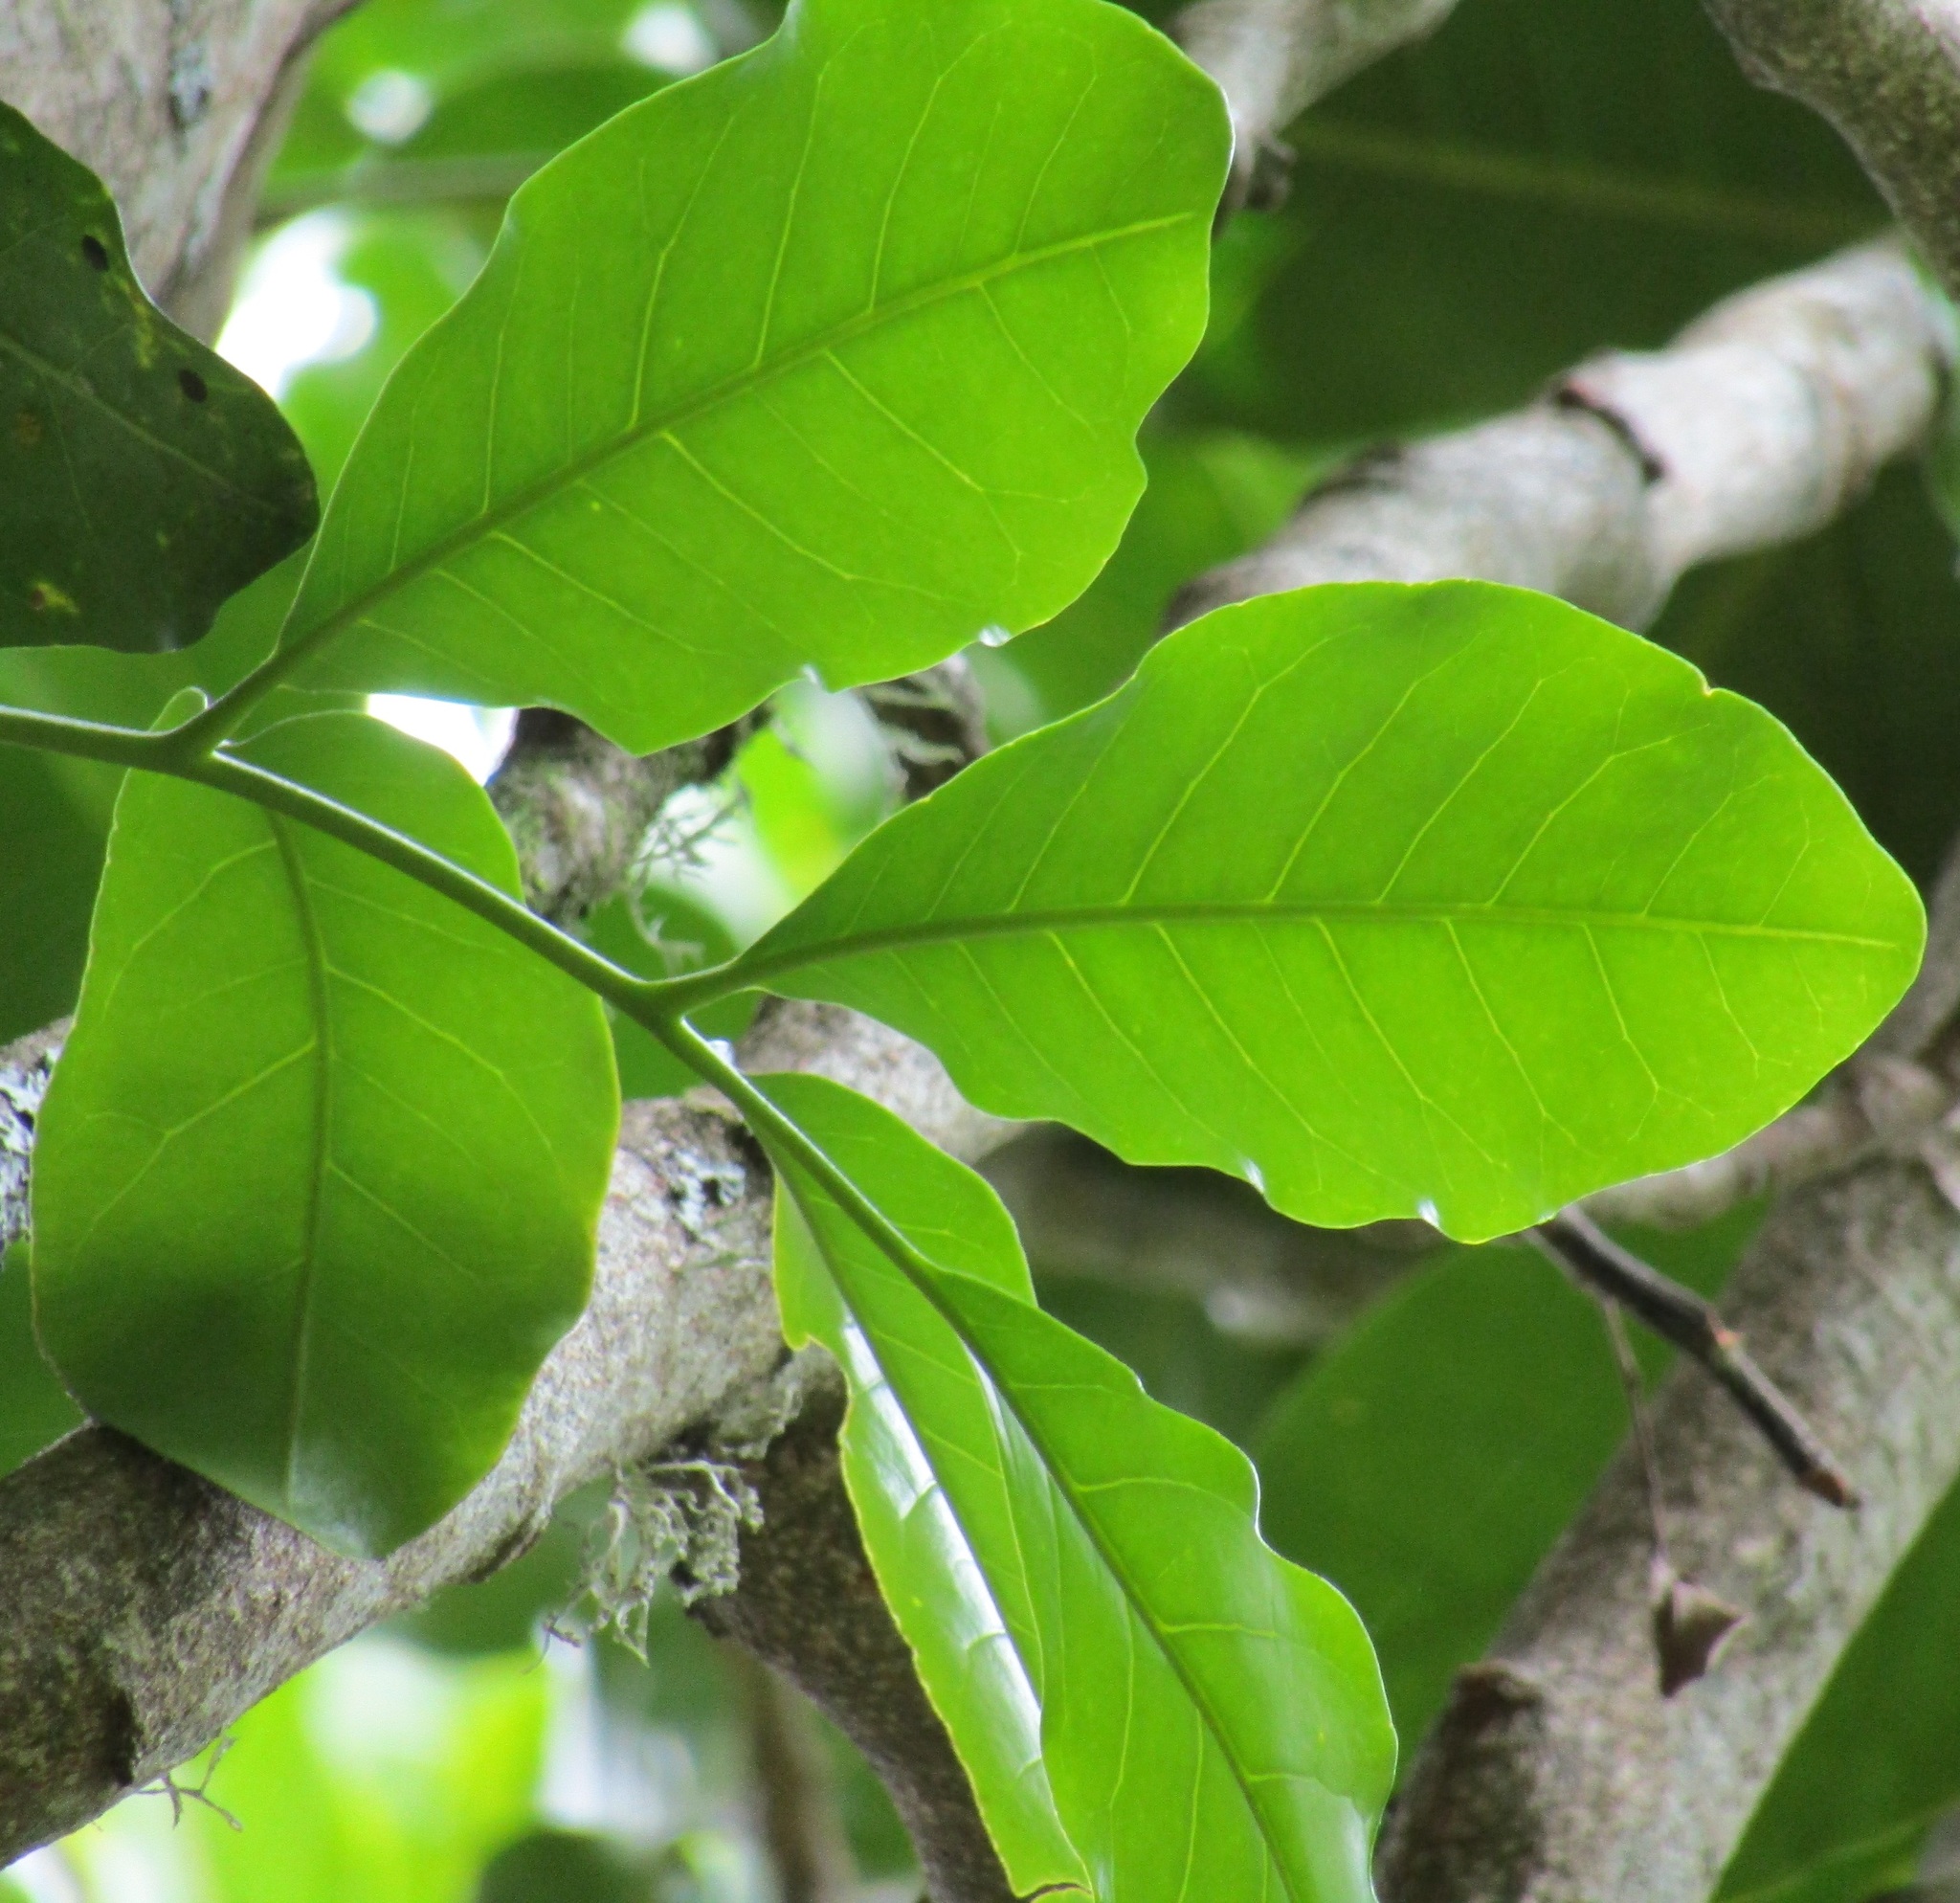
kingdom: Plantae
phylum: Tracheophyta
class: Magnoliopsida
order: Sapindales
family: Meliaceae
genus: Didymocheton
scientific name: Didymocheton spectabilis
